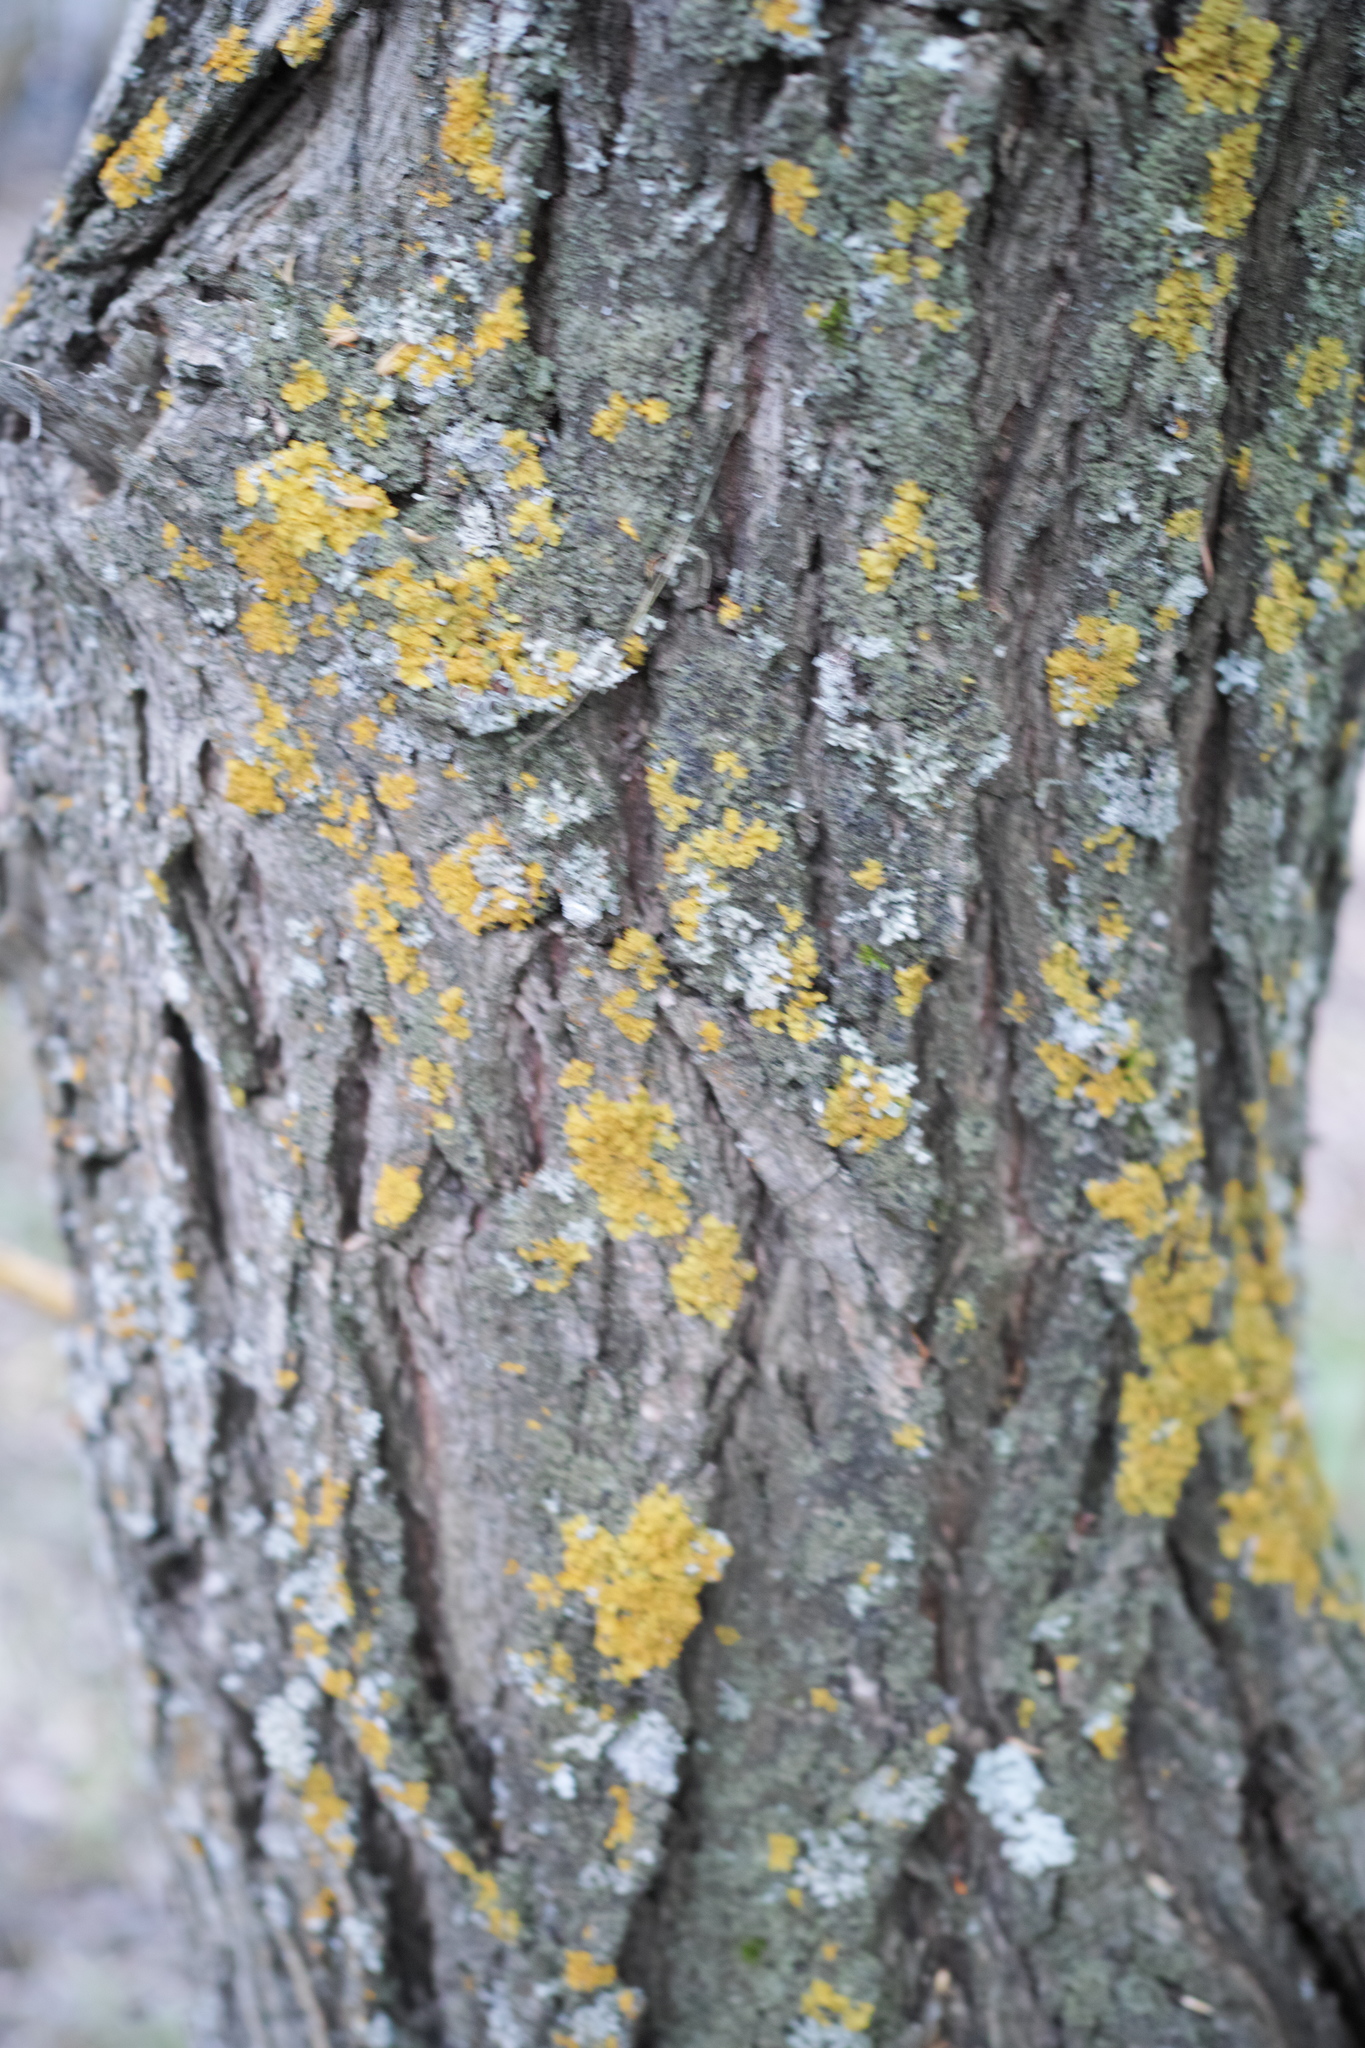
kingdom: Fungi
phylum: Ascomycota
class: Lecanoromycetes
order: Teloschistales
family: Teloschistaceae
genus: Xanthoria
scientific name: Xanthoria parietina
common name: Common orange lichen
